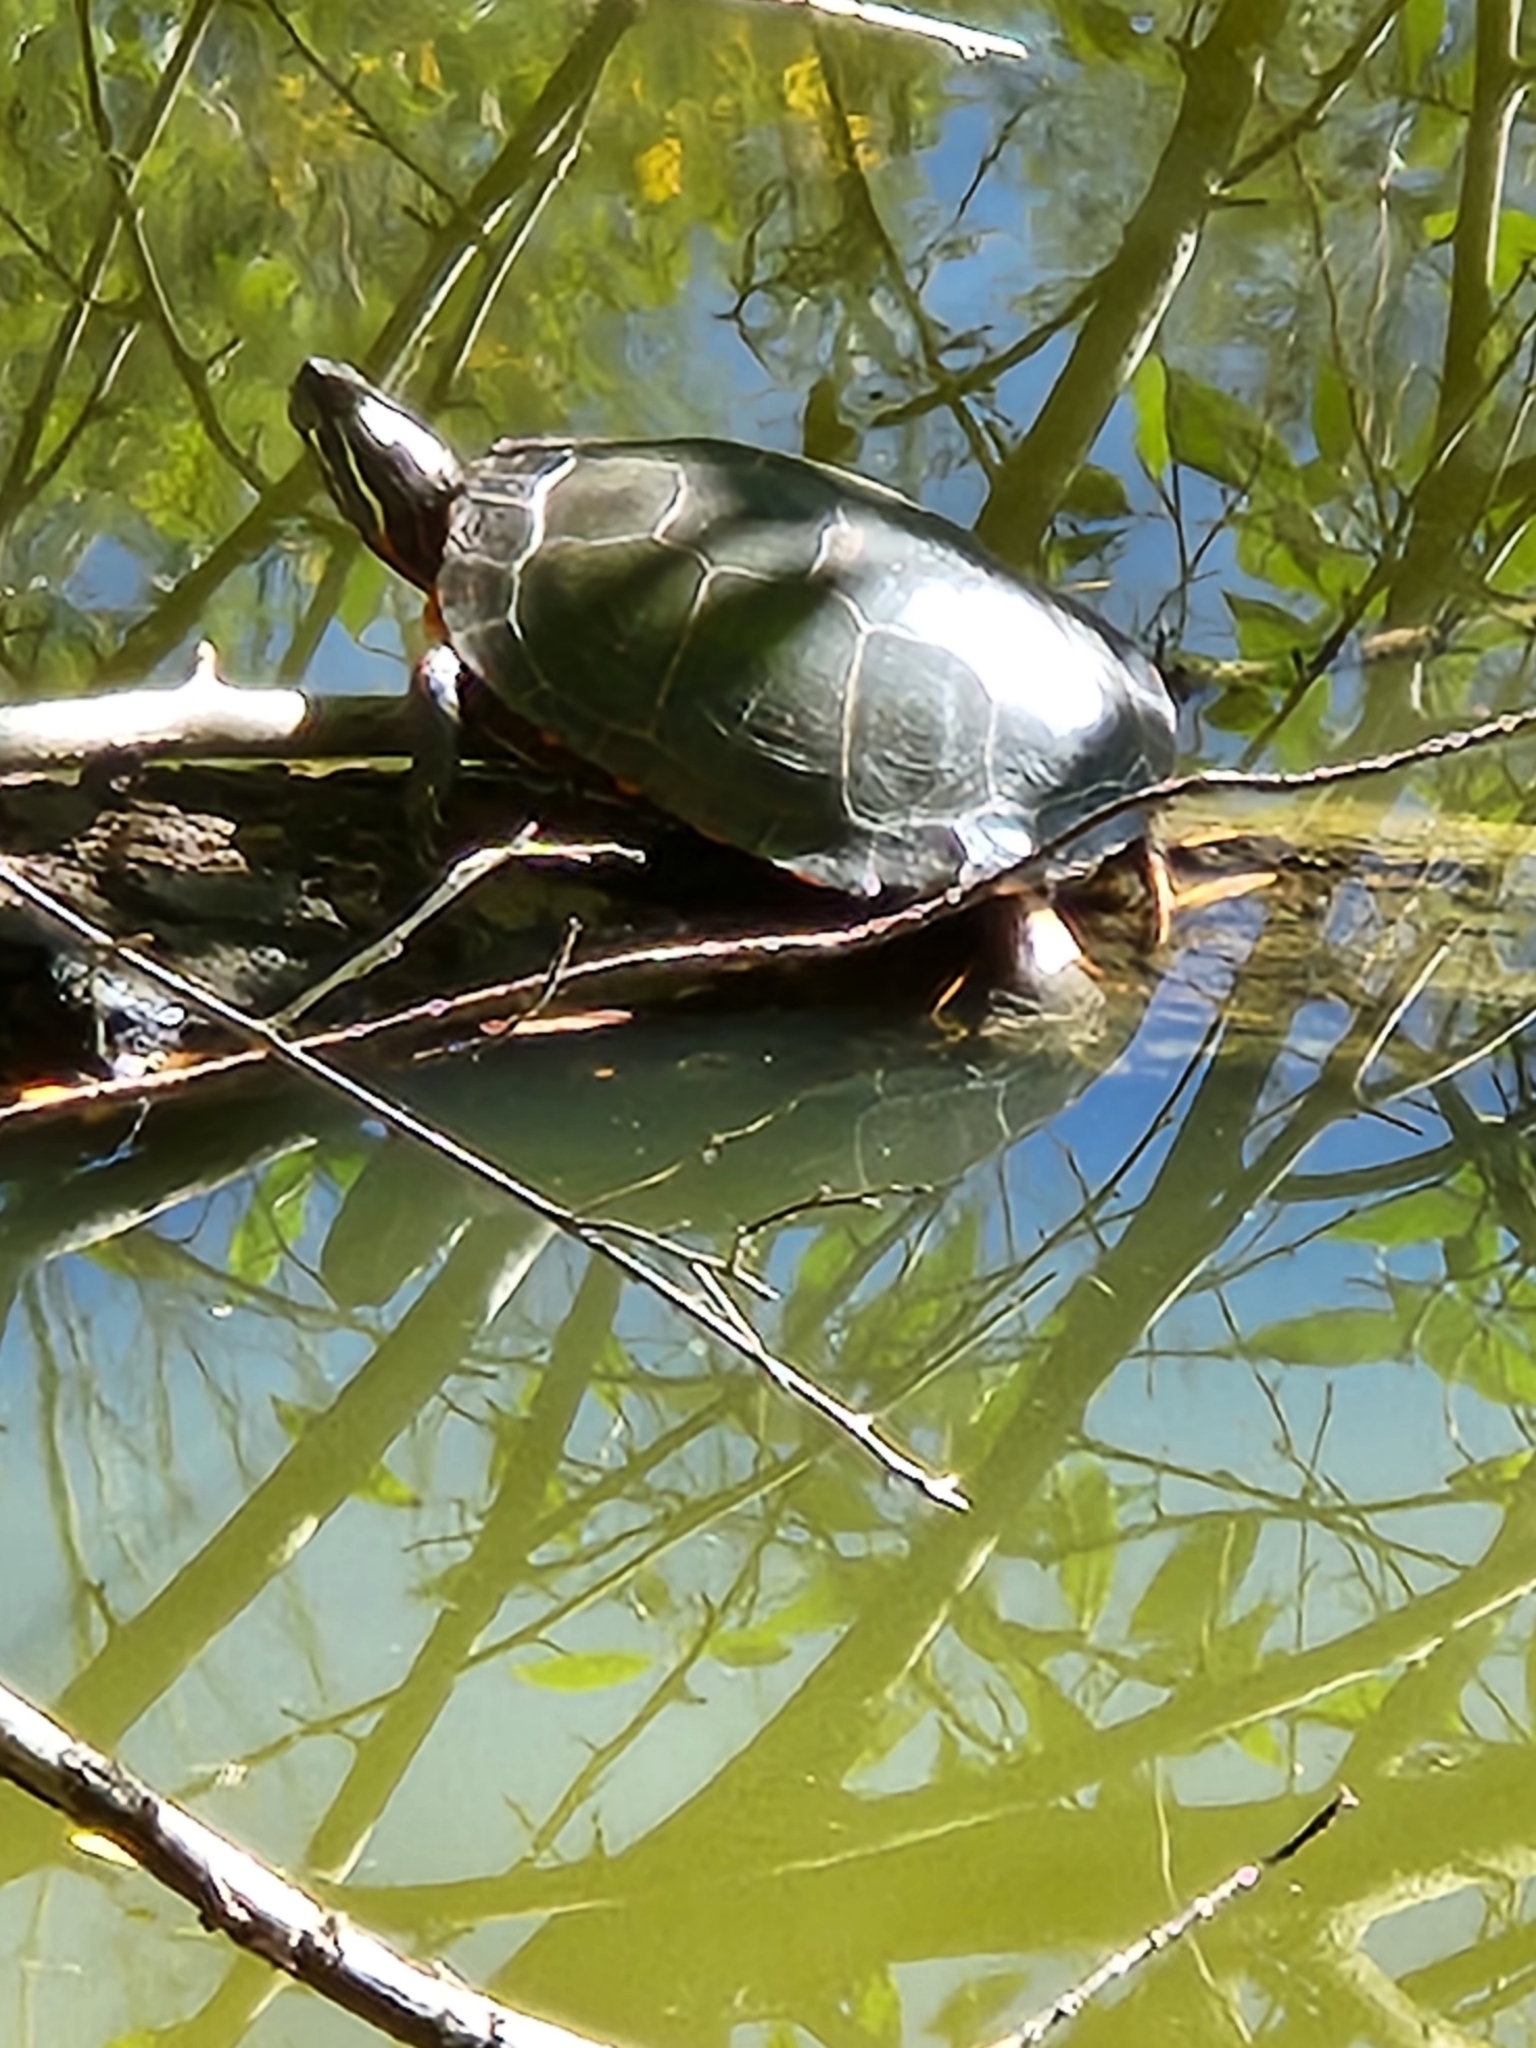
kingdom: Animalia
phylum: Chordata
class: Testudines
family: Emydidae
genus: Chrysemys
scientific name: Chrysemys picta
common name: Painted turtle
